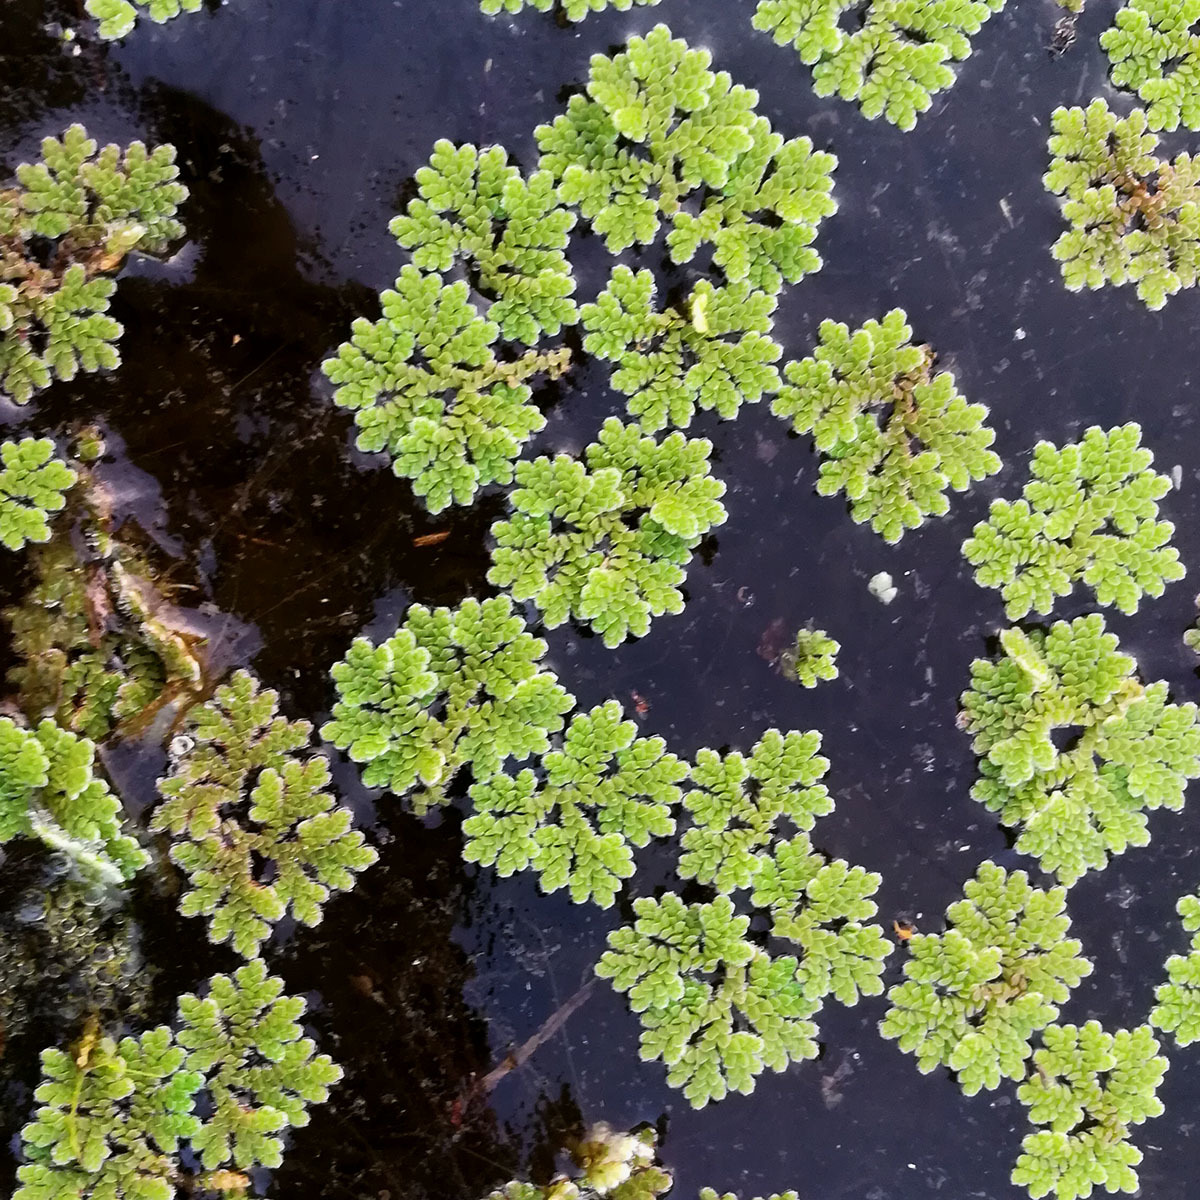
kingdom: Plantae
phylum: Tracheophyta
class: Polypodiopsida
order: Salviniales
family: Salviniaceae
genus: Azolla
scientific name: Azolla filiculoides
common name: Water fern
